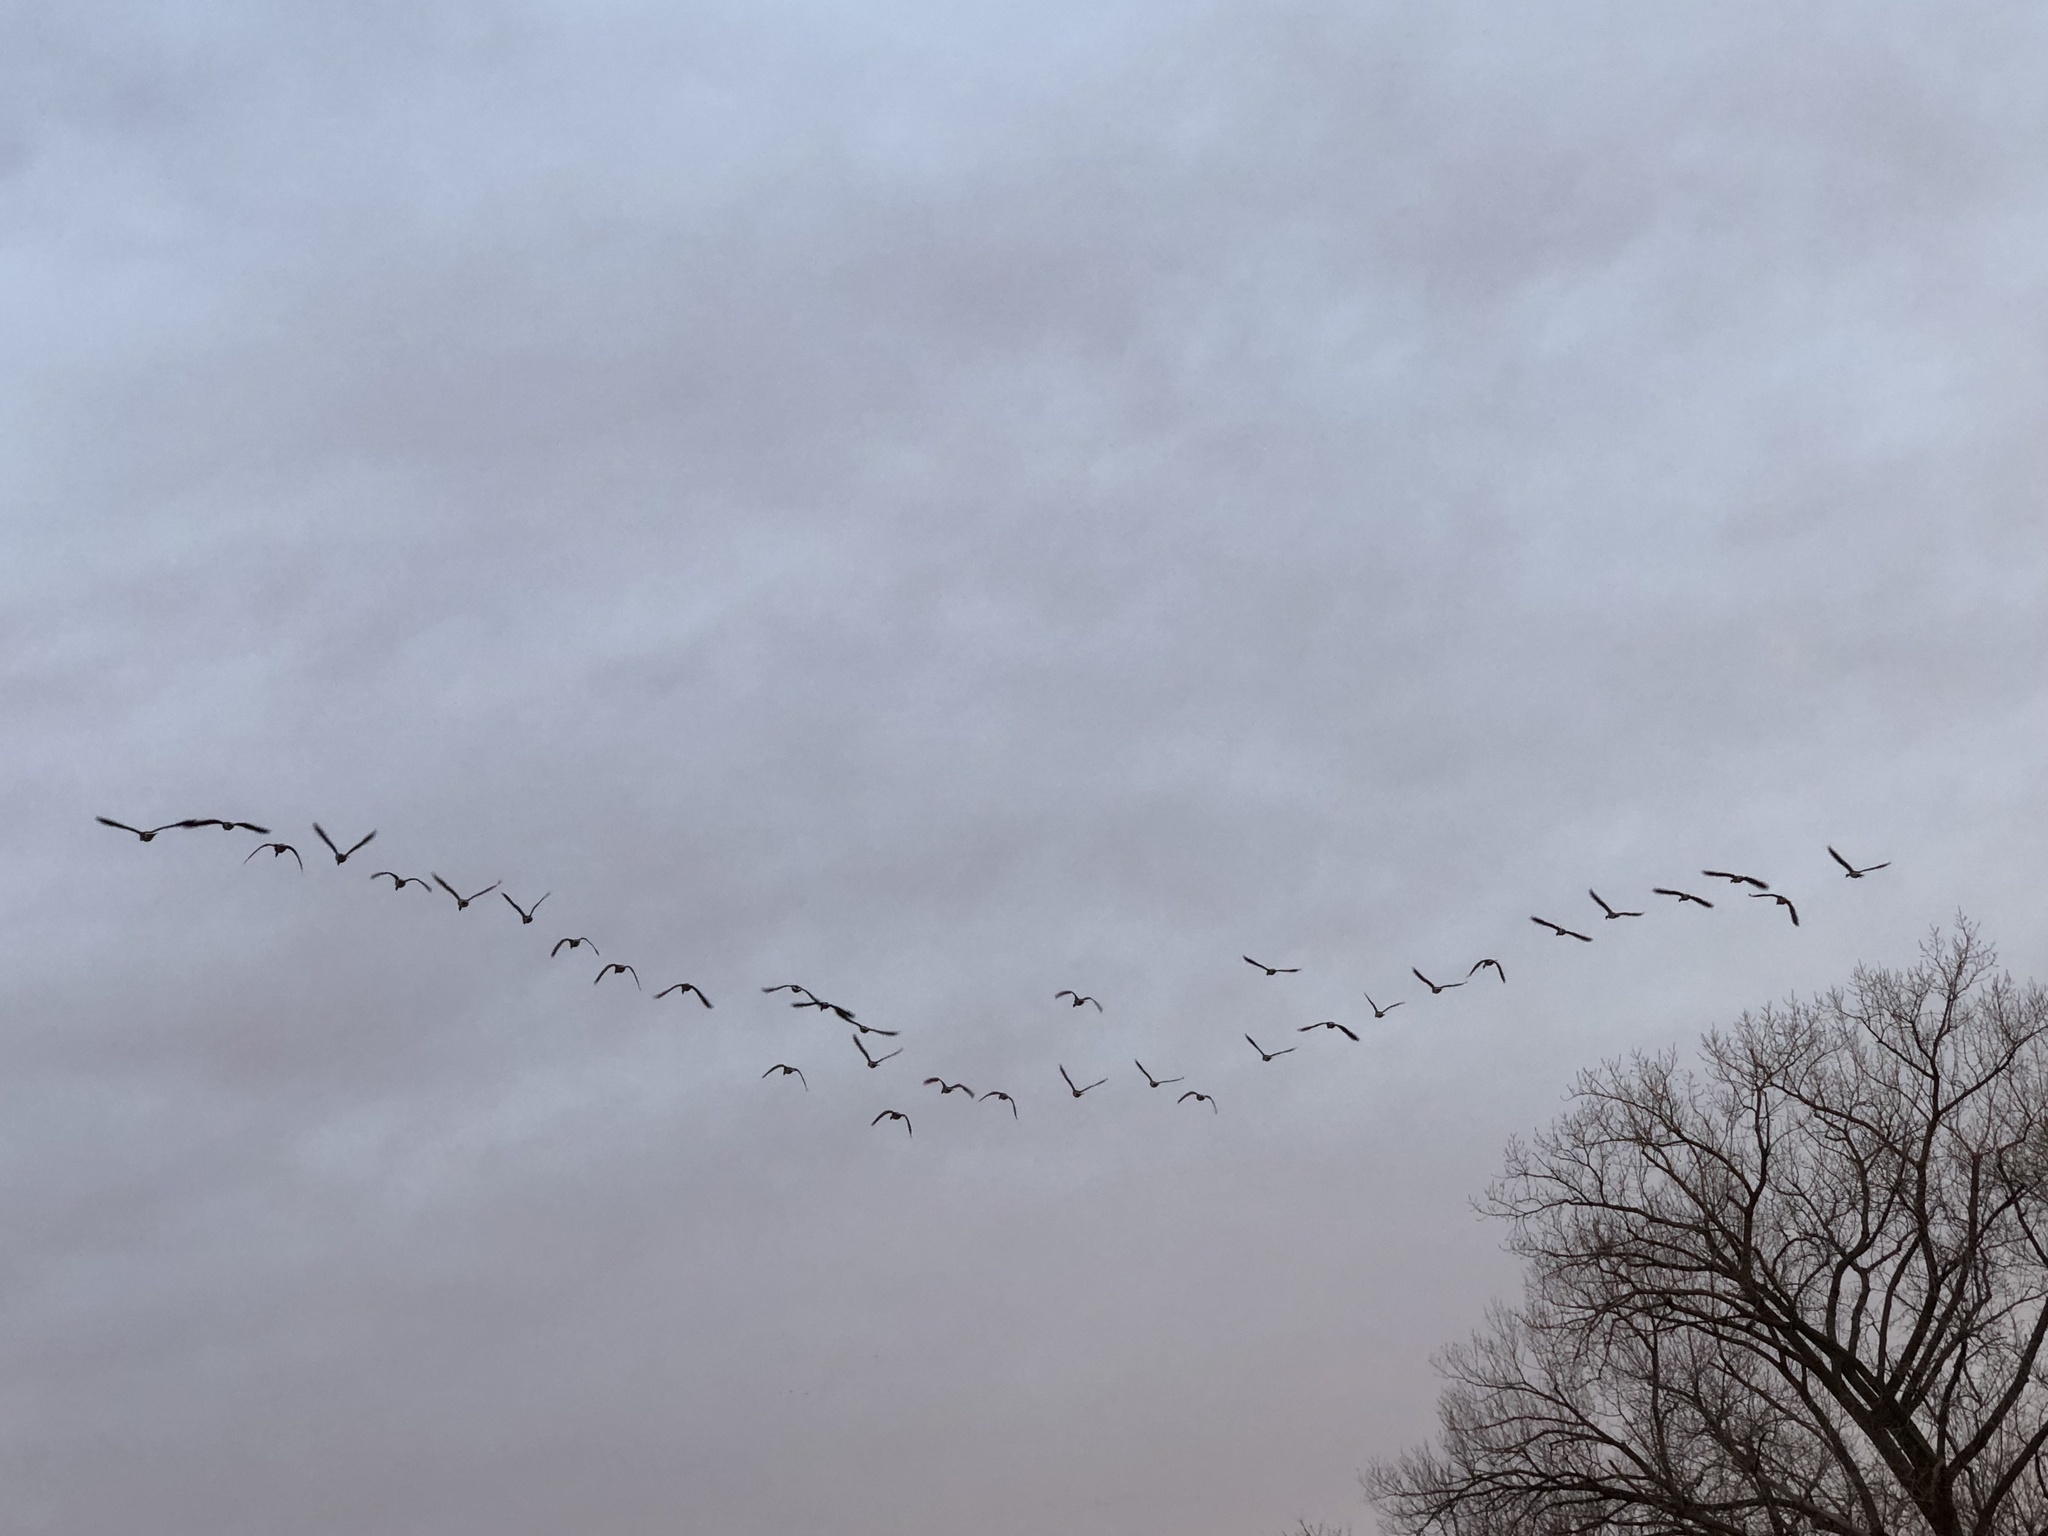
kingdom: Animalia
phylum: Chordata
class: Aves
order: Anseriformes
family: Anatidae
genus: Branta
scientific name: Branta canadensis
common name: Canada goose
